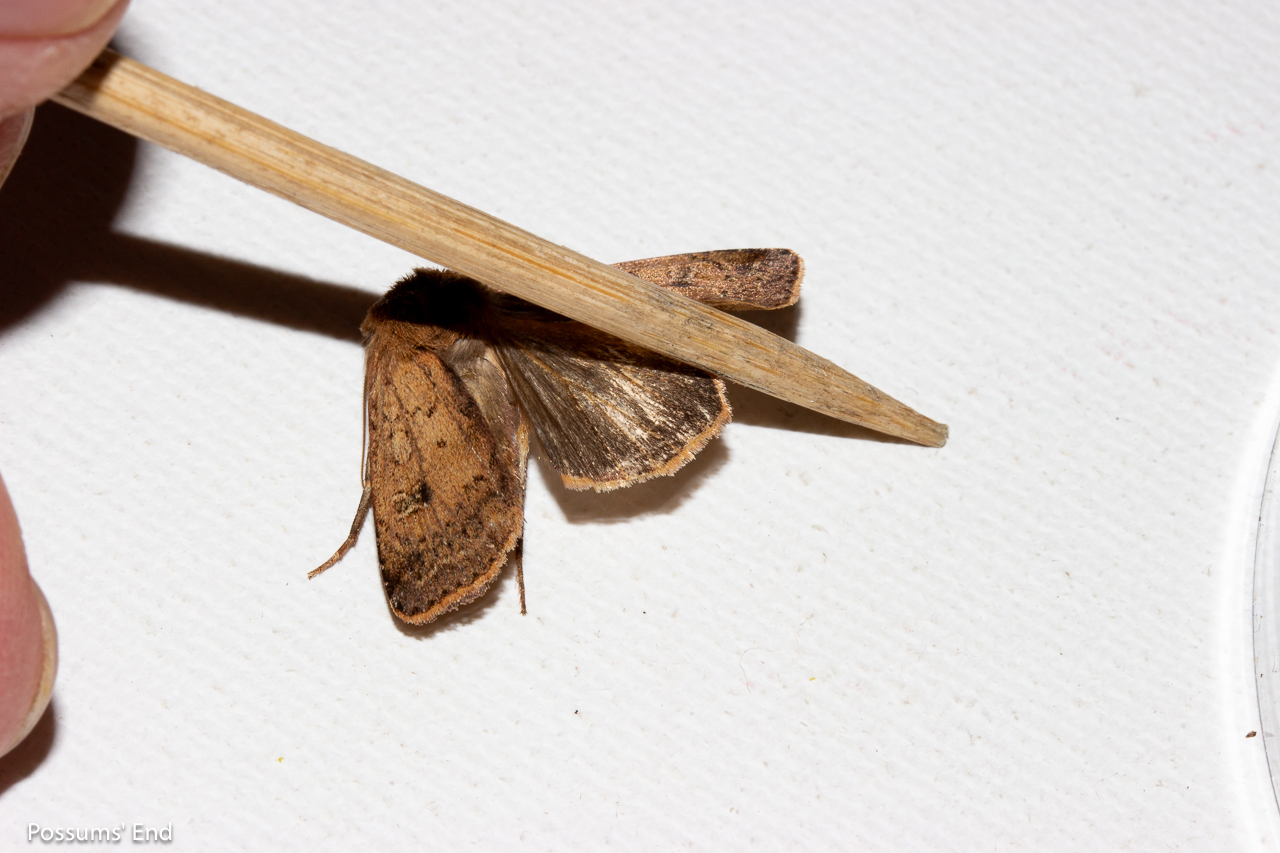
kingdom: Animalia
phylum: Arthropoda
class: Insecta
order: Lepidoptera
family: Noctuidae
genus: Diarsia
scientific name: Diarsia intermixta
